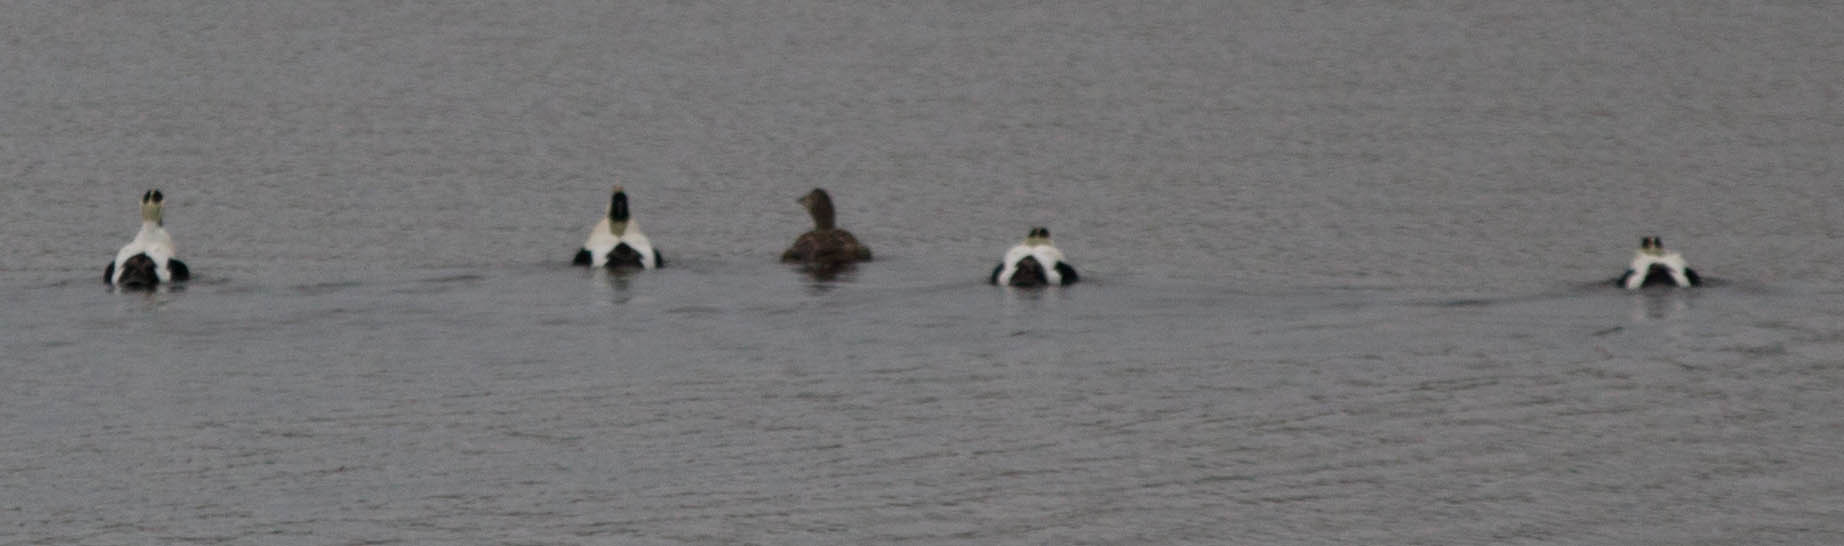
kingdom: Animalia
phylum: Chordata
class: Aves
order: Anseriformes
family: Anatidae
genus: Somateria
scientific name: Somateria mollissima
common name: Common eider
